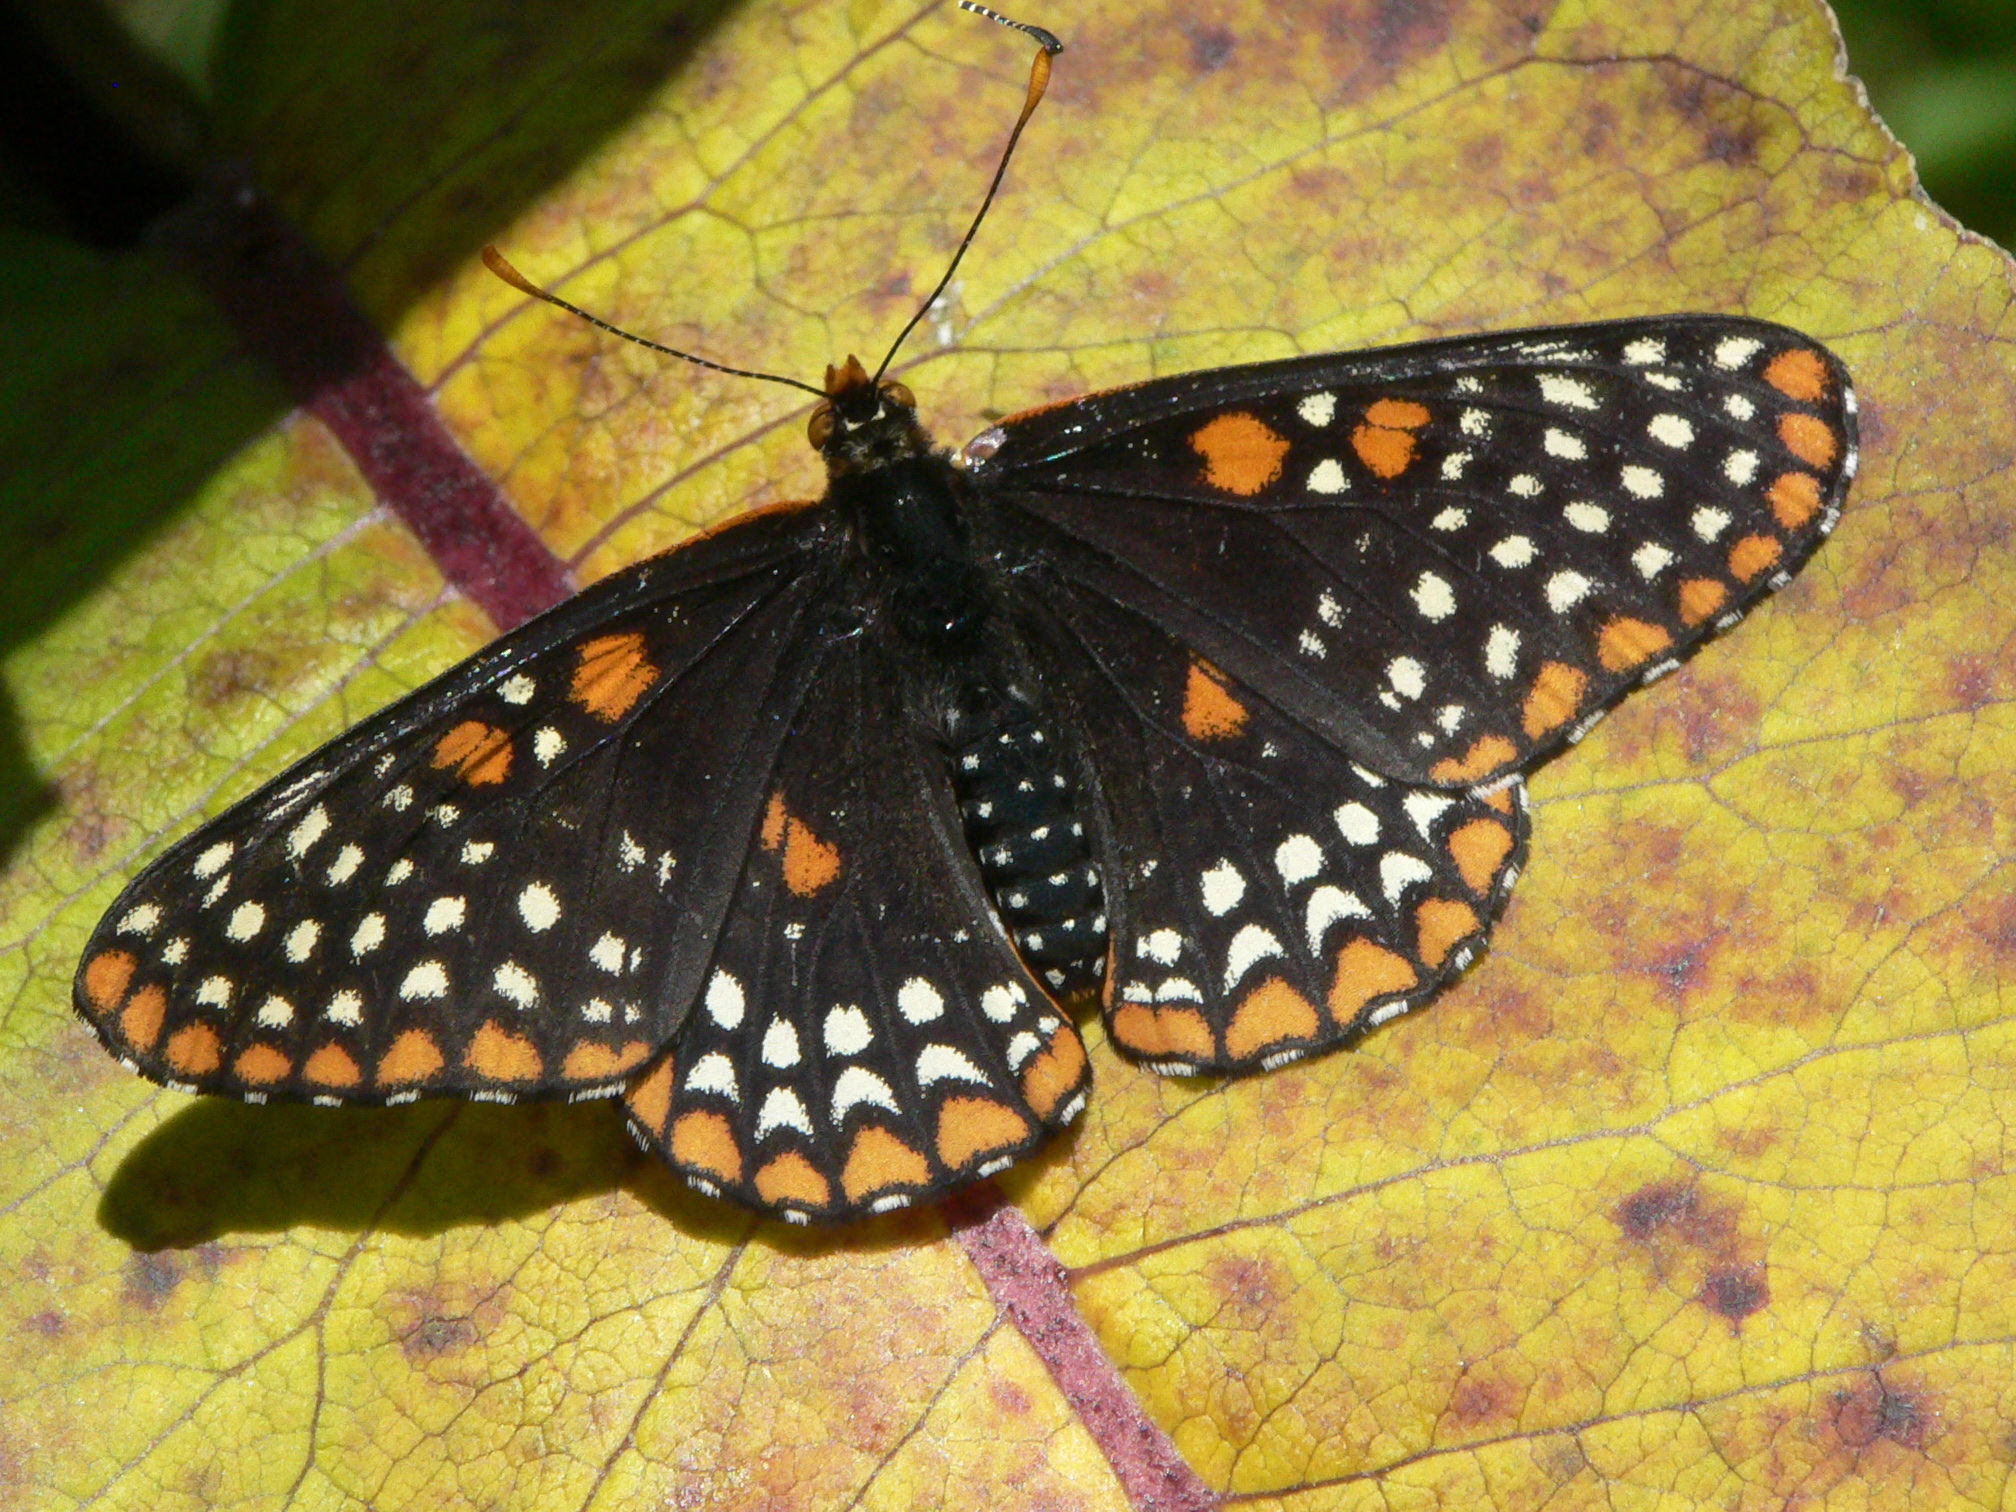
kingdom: Animalia
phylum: Arthropoda
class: Insecta
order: Lepidoptera
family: Nymphalidae
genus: Euphydryas
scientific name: Euphydryas phaeton
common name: Baltimore checkerspot
